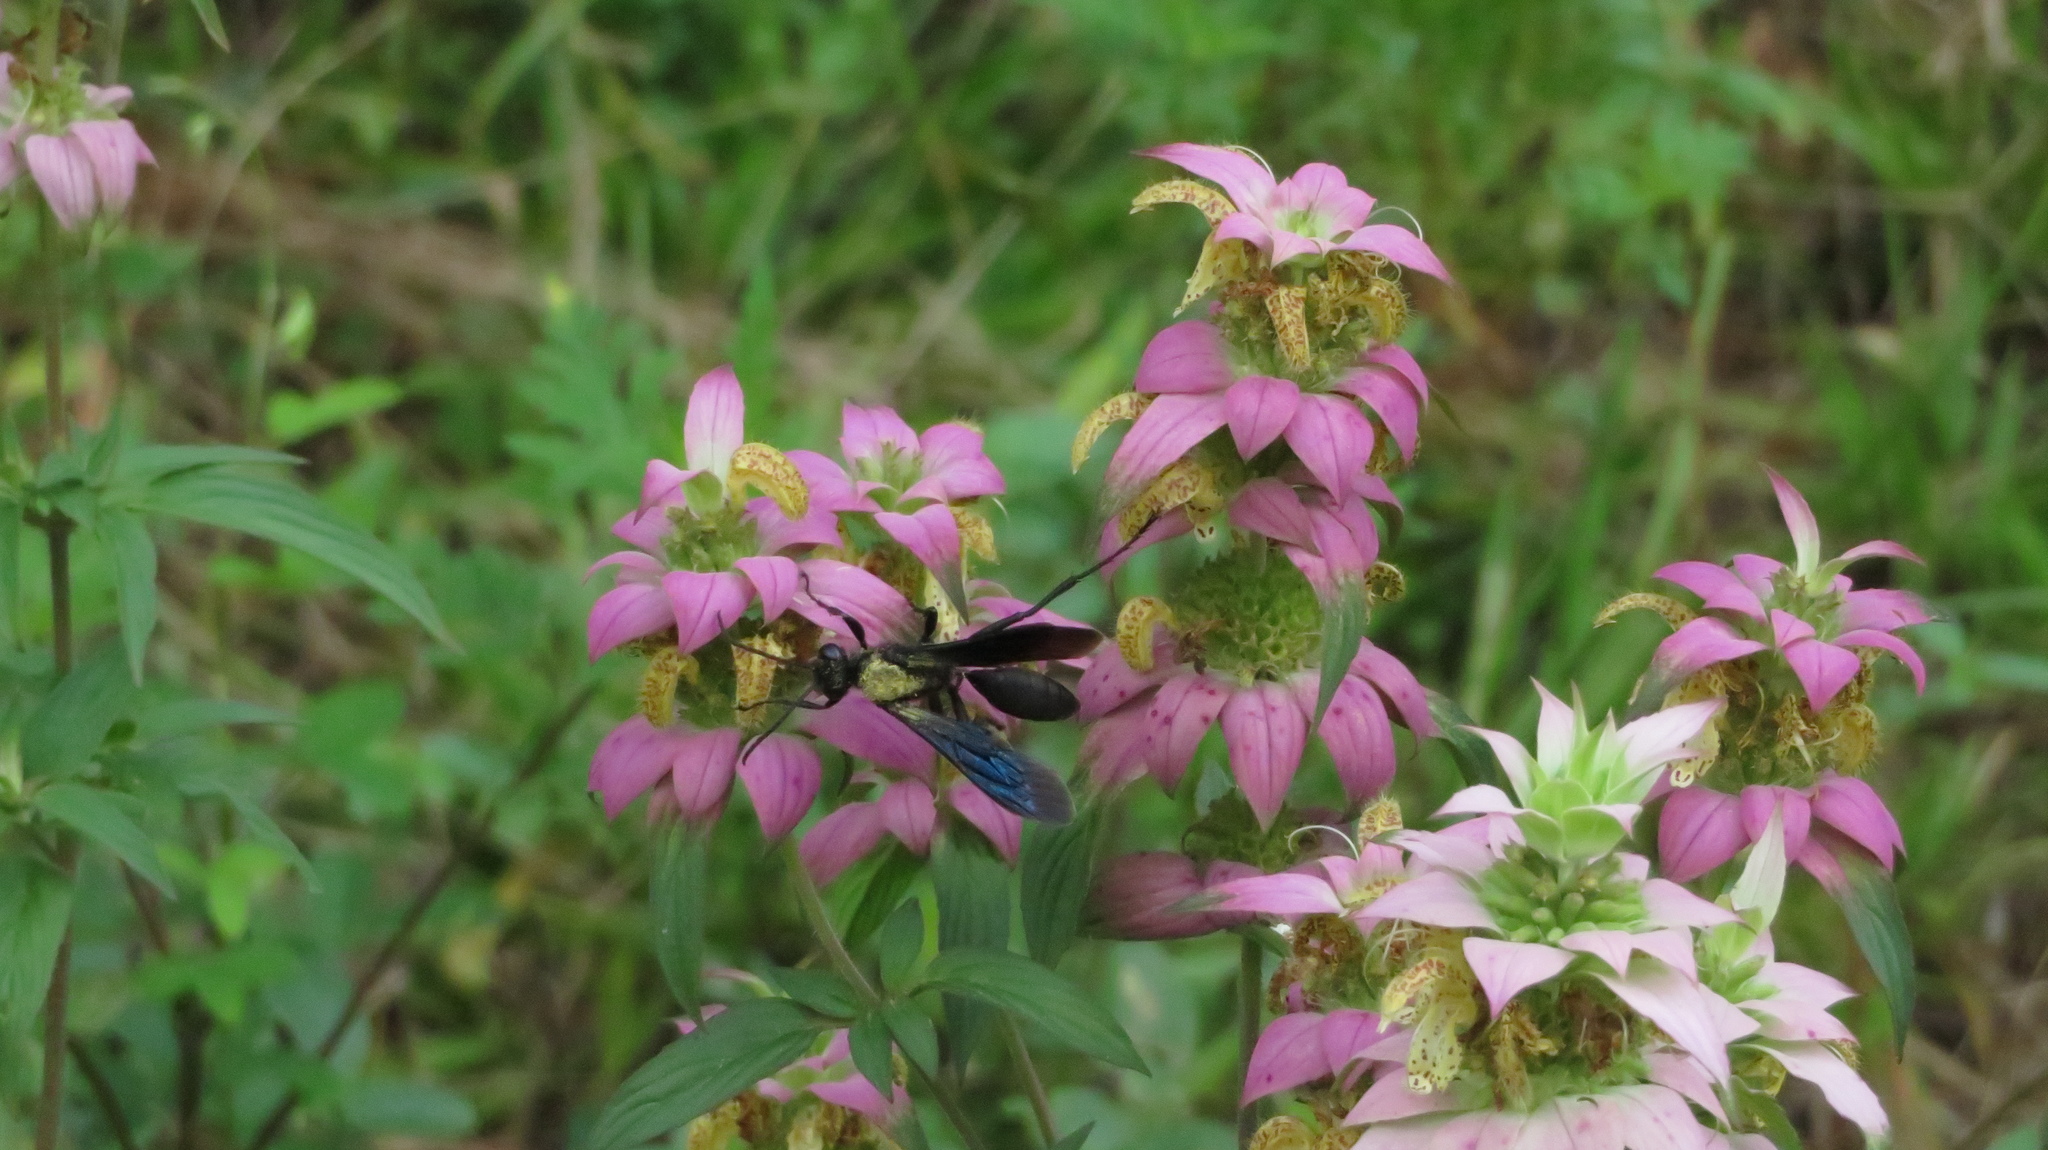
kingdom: Animalia
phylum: Arthropoda
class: Insecta
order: Hymenoptera
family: Sphecidae
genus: Sphex
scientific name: Sphex pensylvanicus
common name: Great black digger wasp
